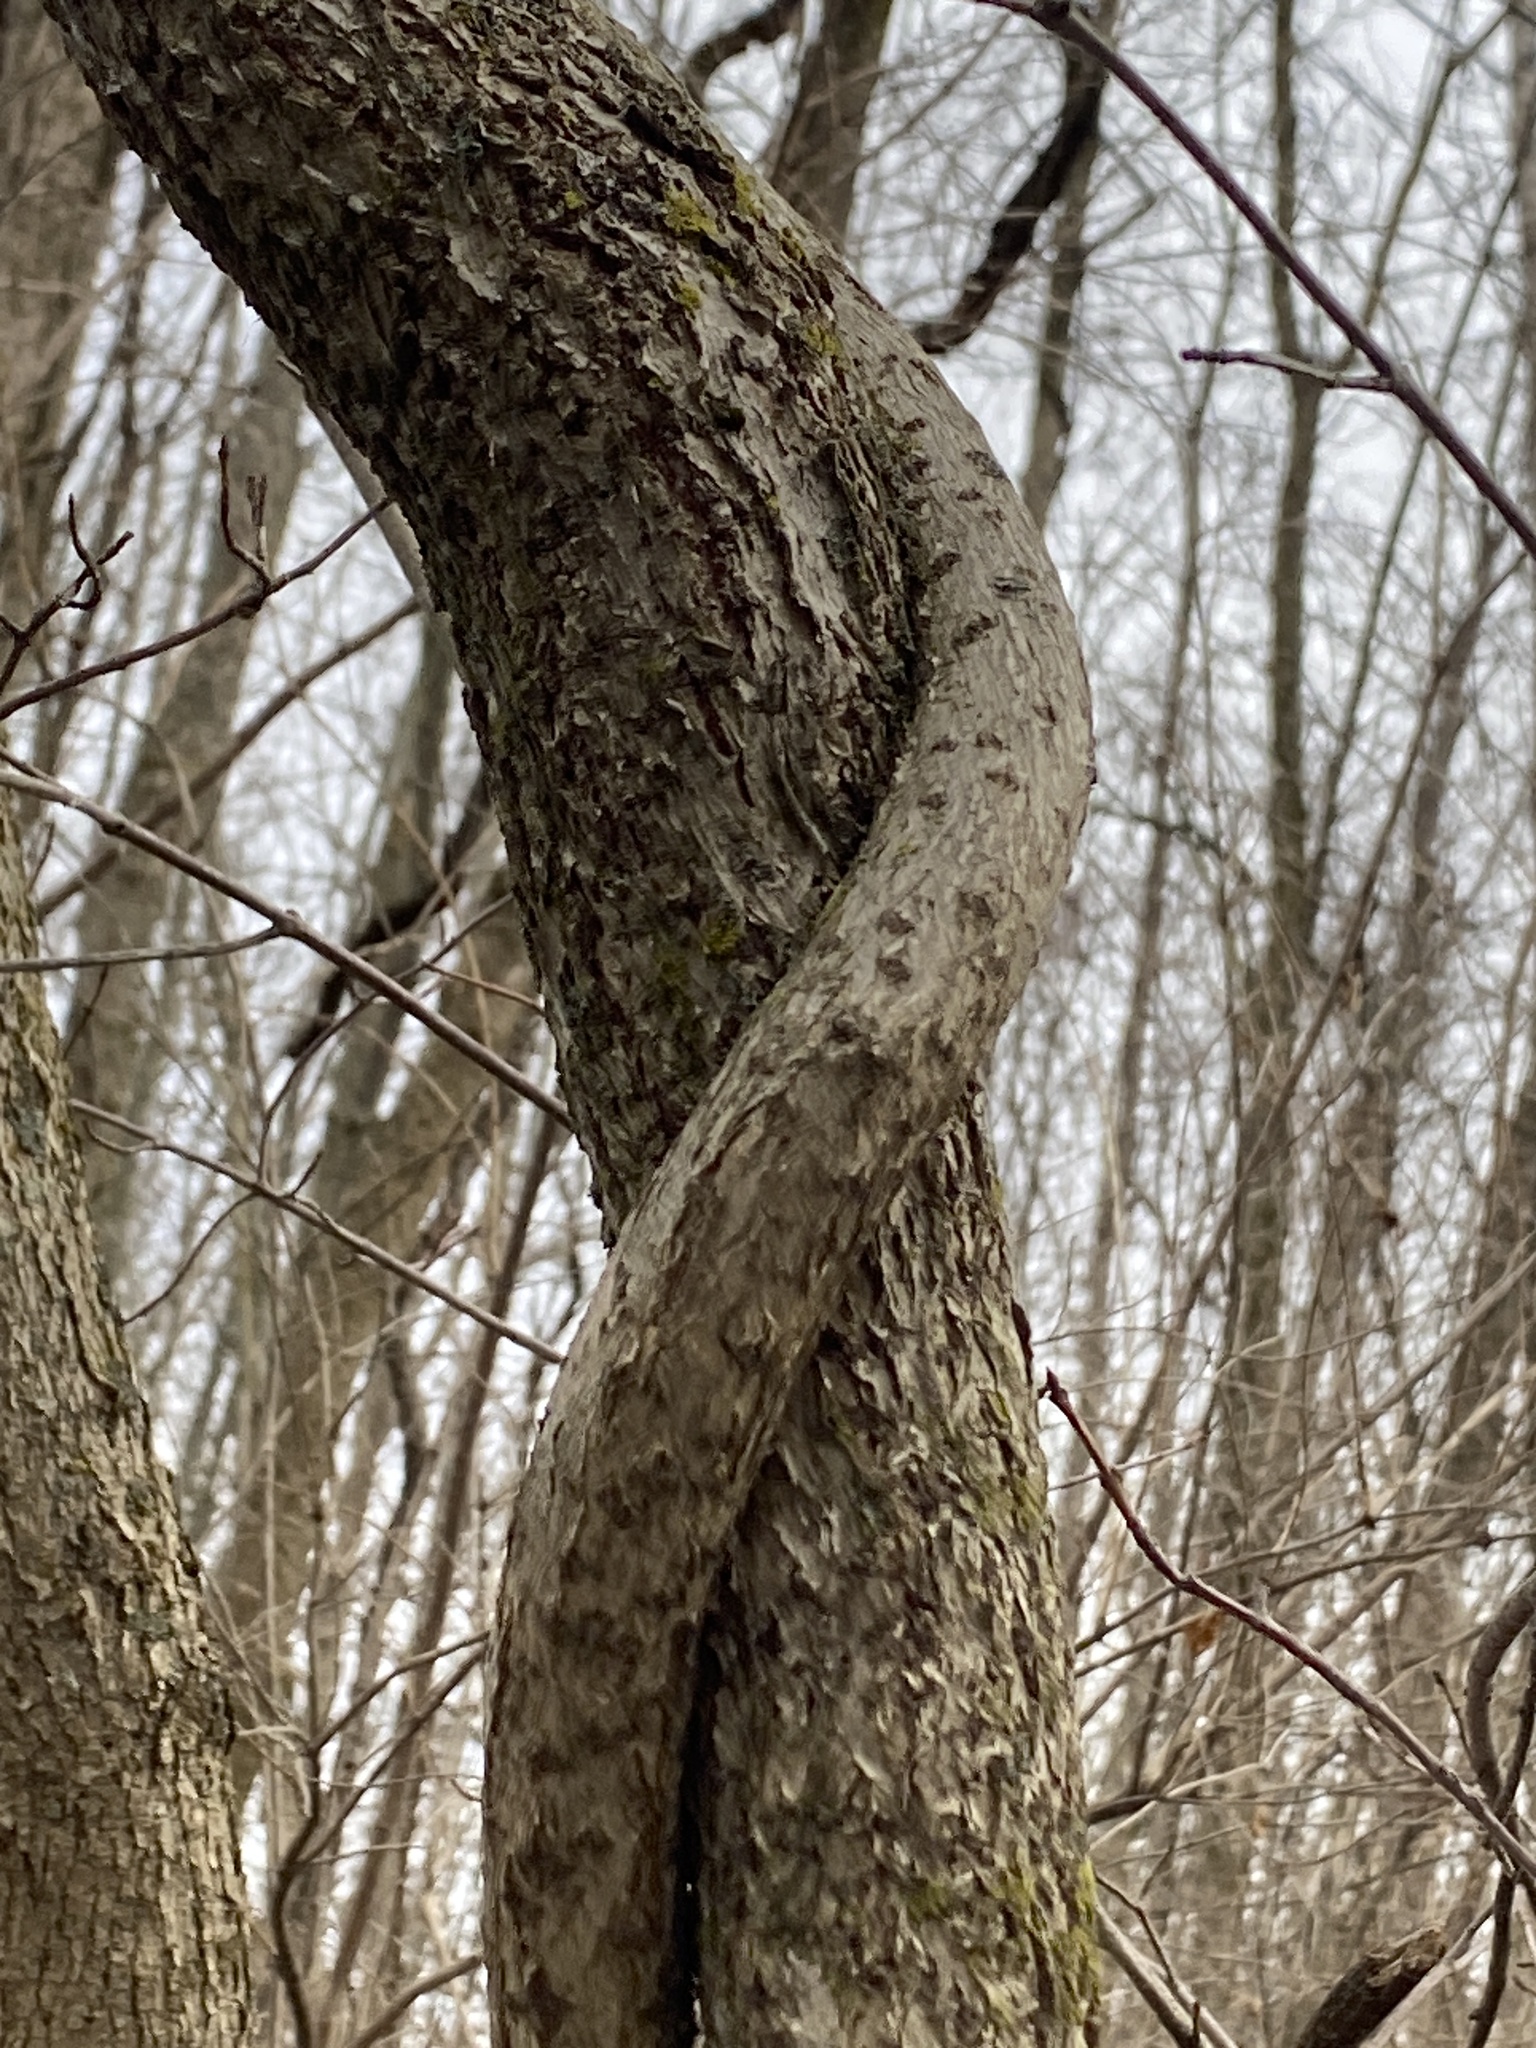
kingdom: Plantae
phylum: Tracheophyta
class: Magnoliopsida
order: Celastrales
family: Celastraceae
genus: Celastrus
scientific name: Celastrus orbiculatus
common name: Oriental bittersweet
